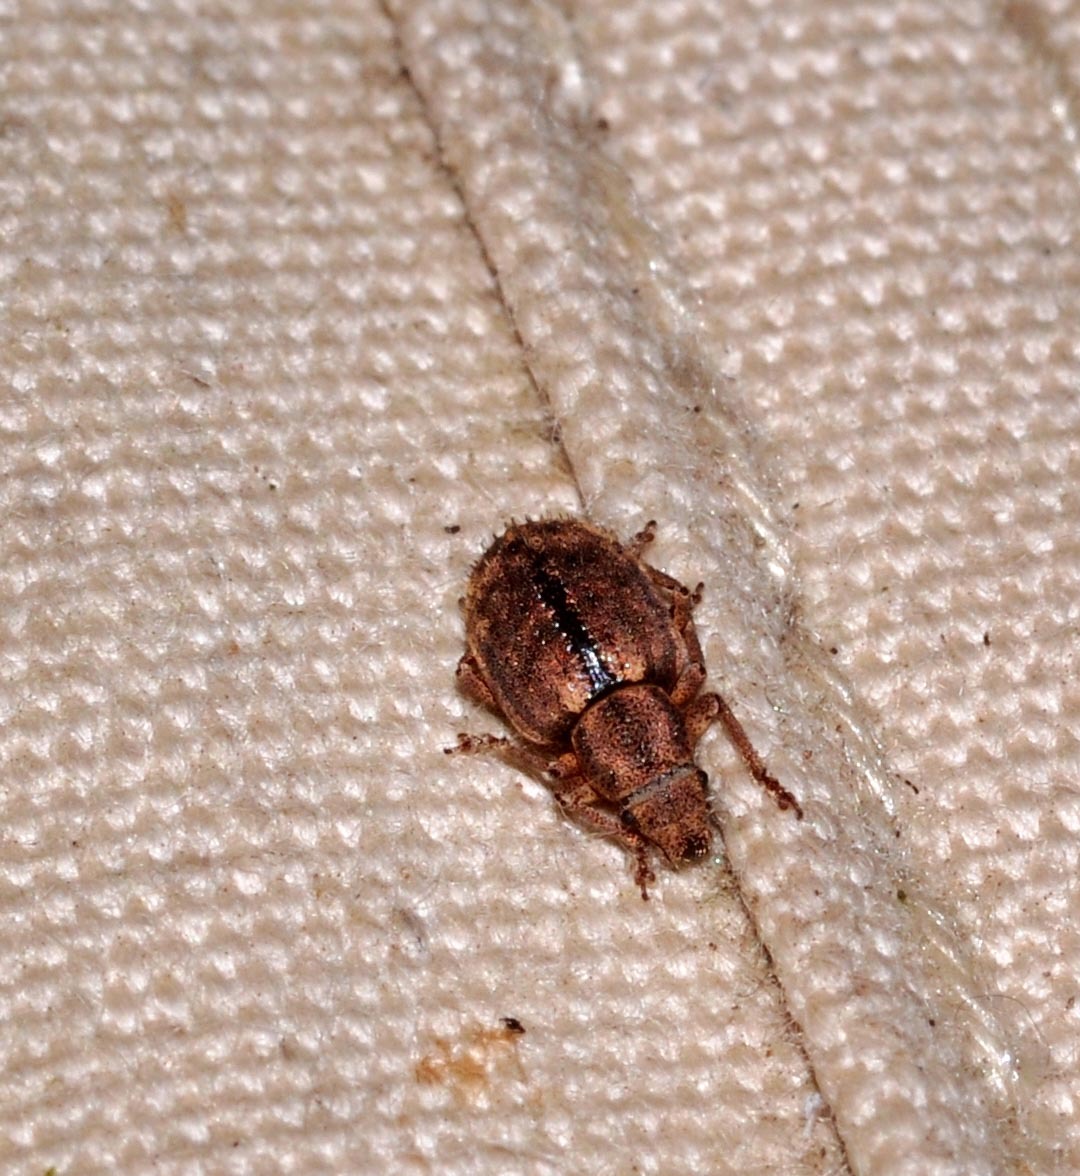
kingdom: Animalia
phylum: Arthropoda
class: Insecta
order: Coleoptera
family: Curculionidae
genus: Strophosoma
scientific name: Strophosoma melanogrammum
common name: Weevil
